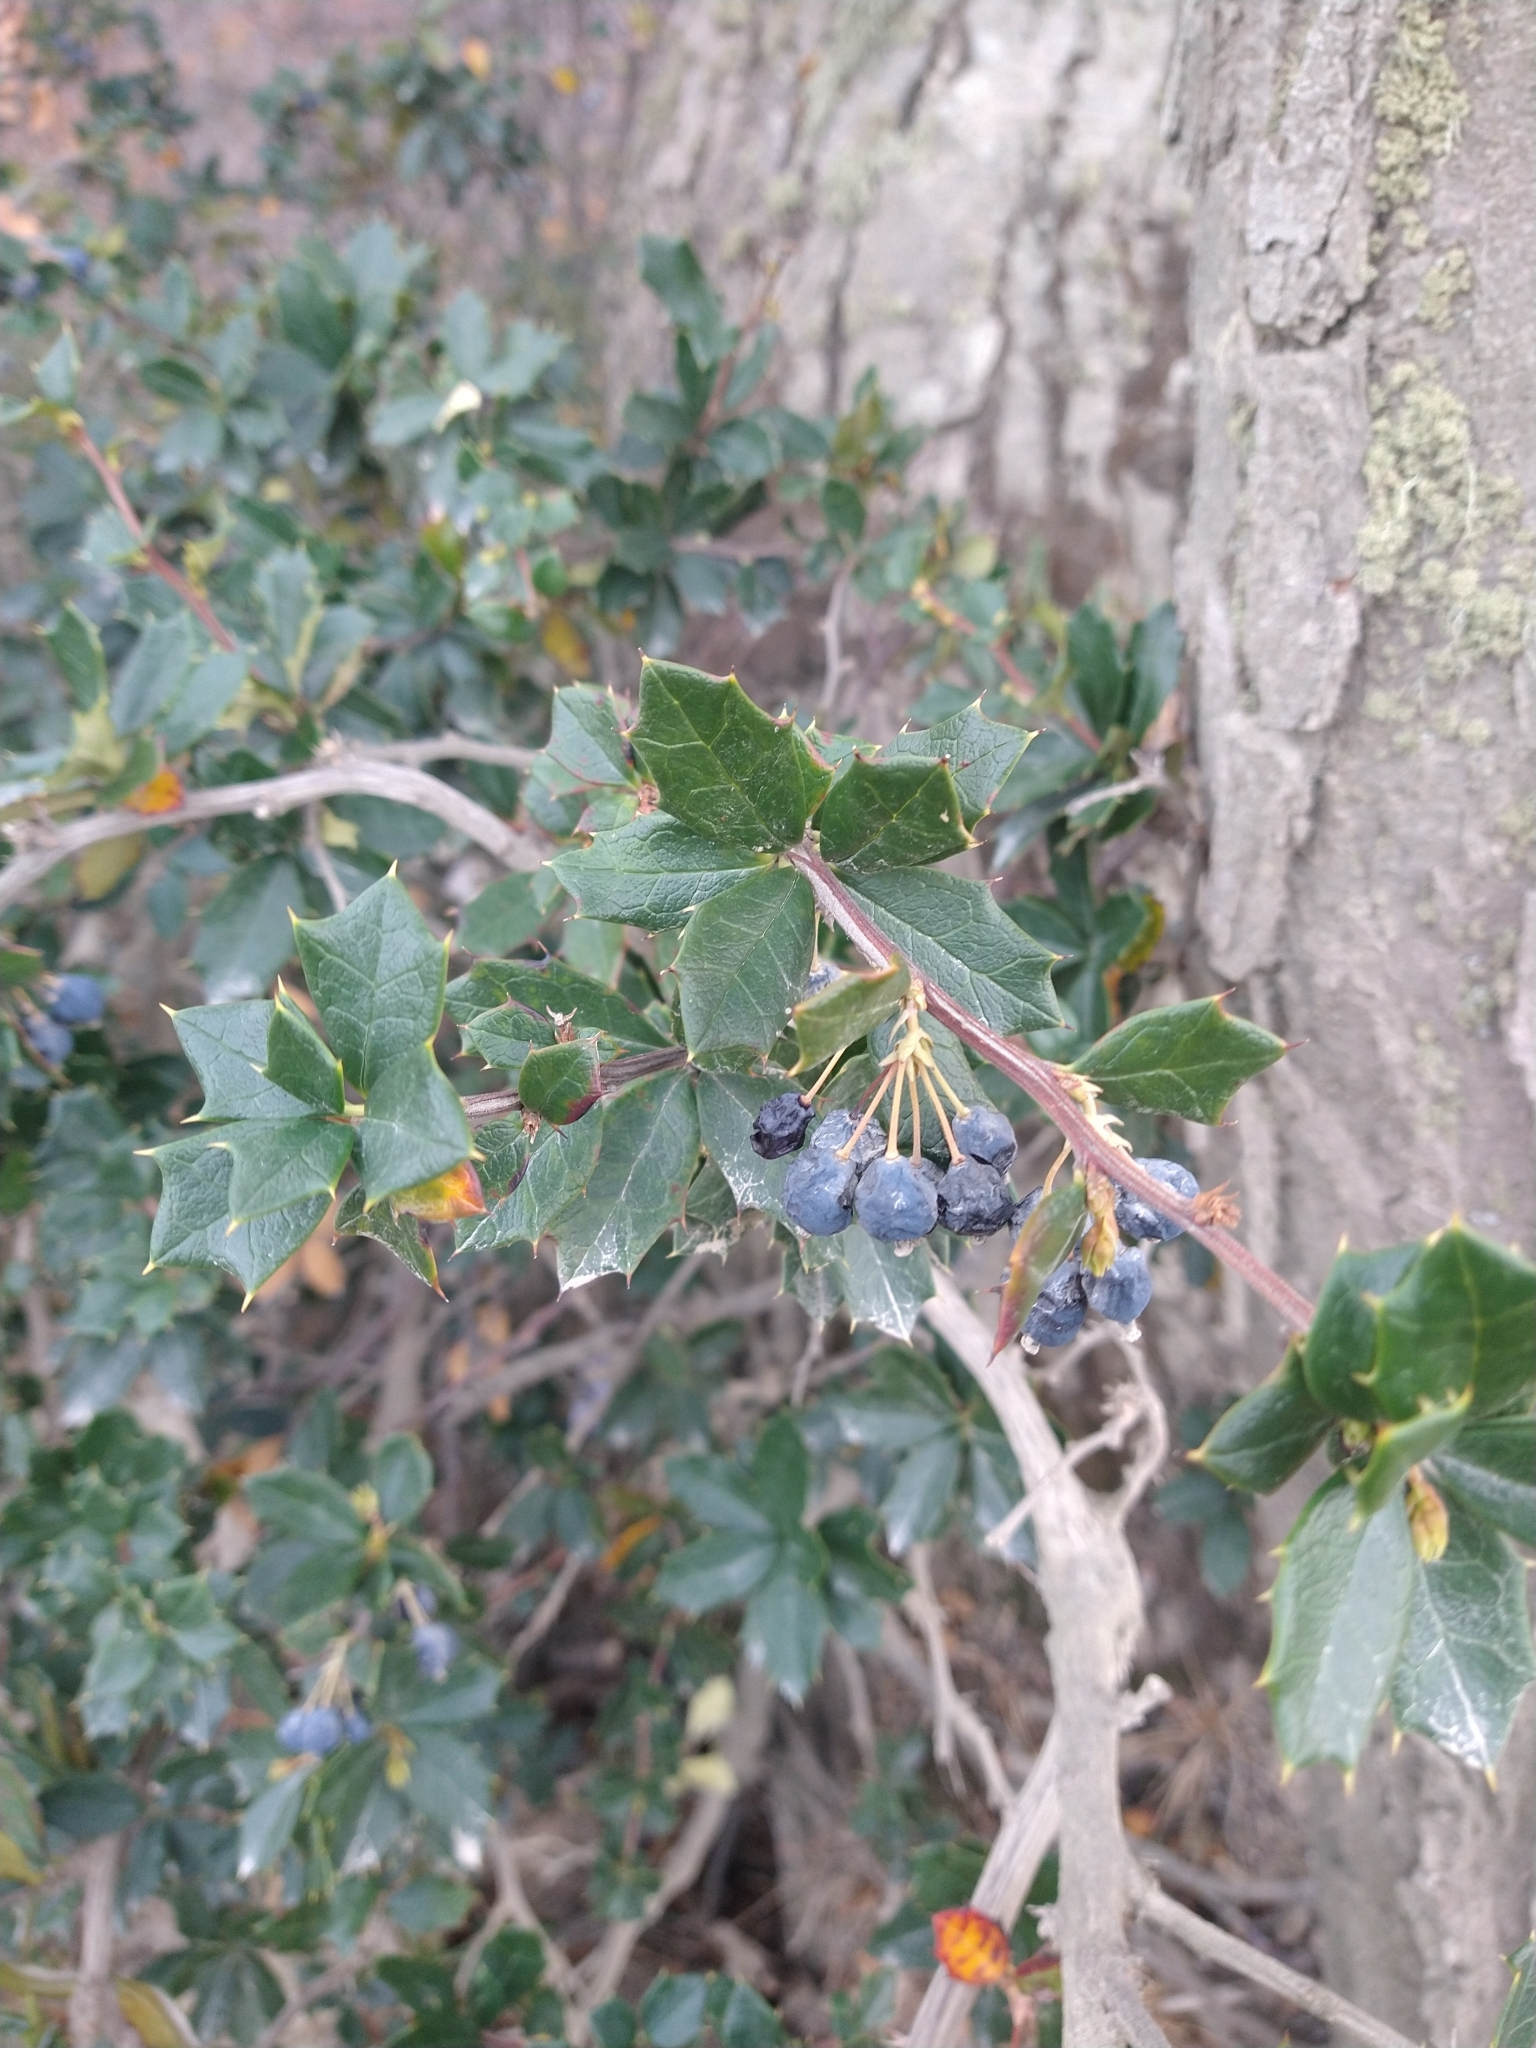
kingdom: Plantae
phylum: Tracheophyta
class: Magnoliopsida
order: Ranunculales
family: Berberidaceae
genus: Berberis
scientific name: Berberis ilicifolia
